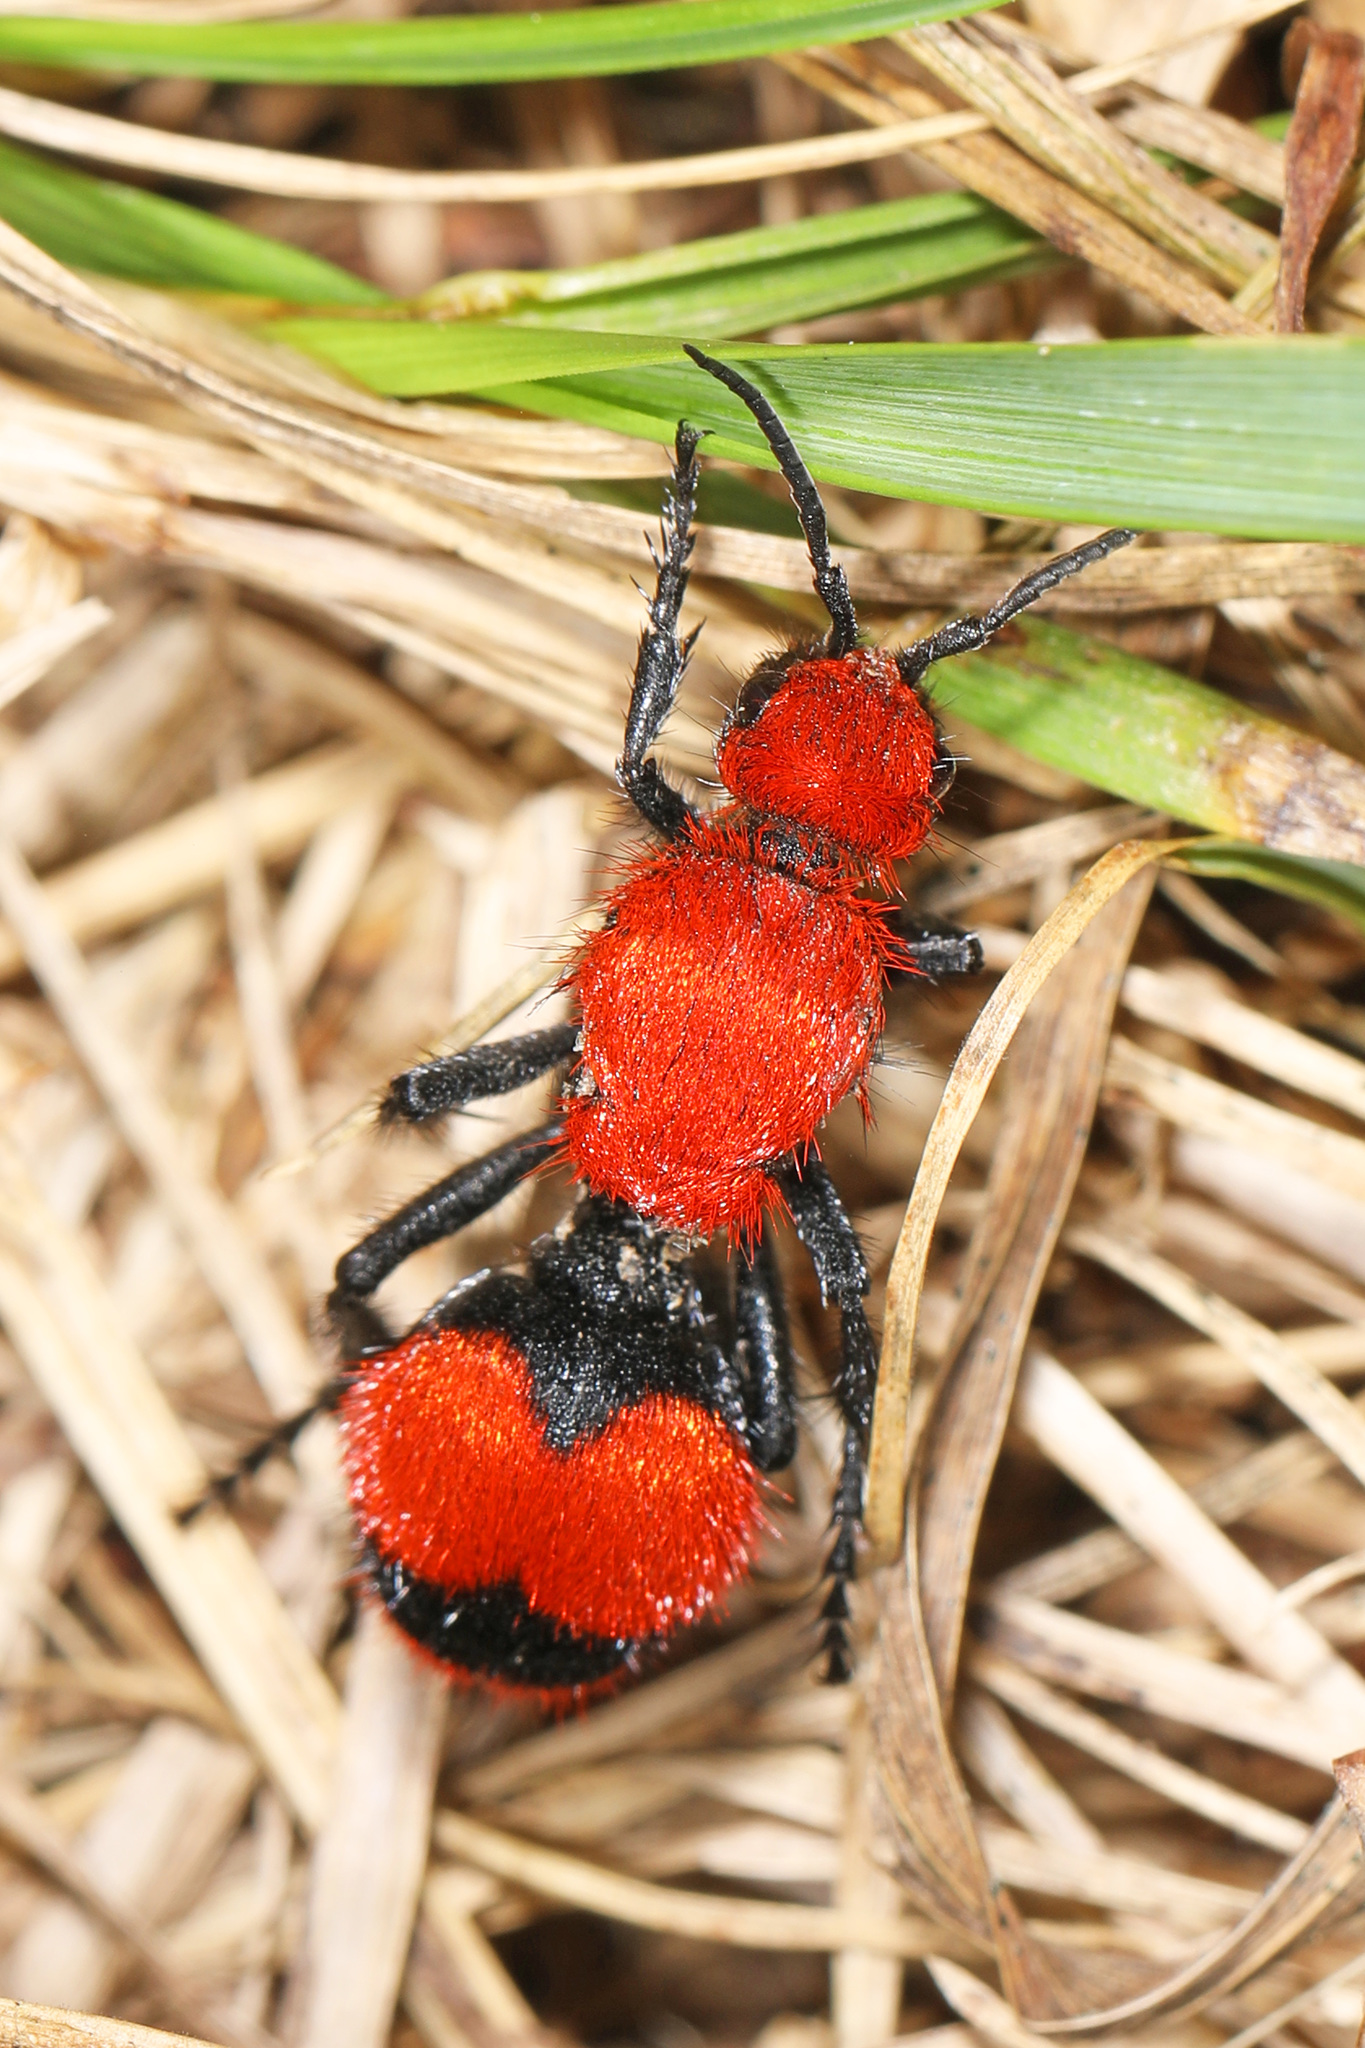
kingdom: Animalia
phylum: Arthropoda
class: Insecta
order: Hymenoptera
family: Mutillidae
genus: Dasymutilla
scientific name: Dasymutilla occidentalis
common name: Common eastern velvet ant
